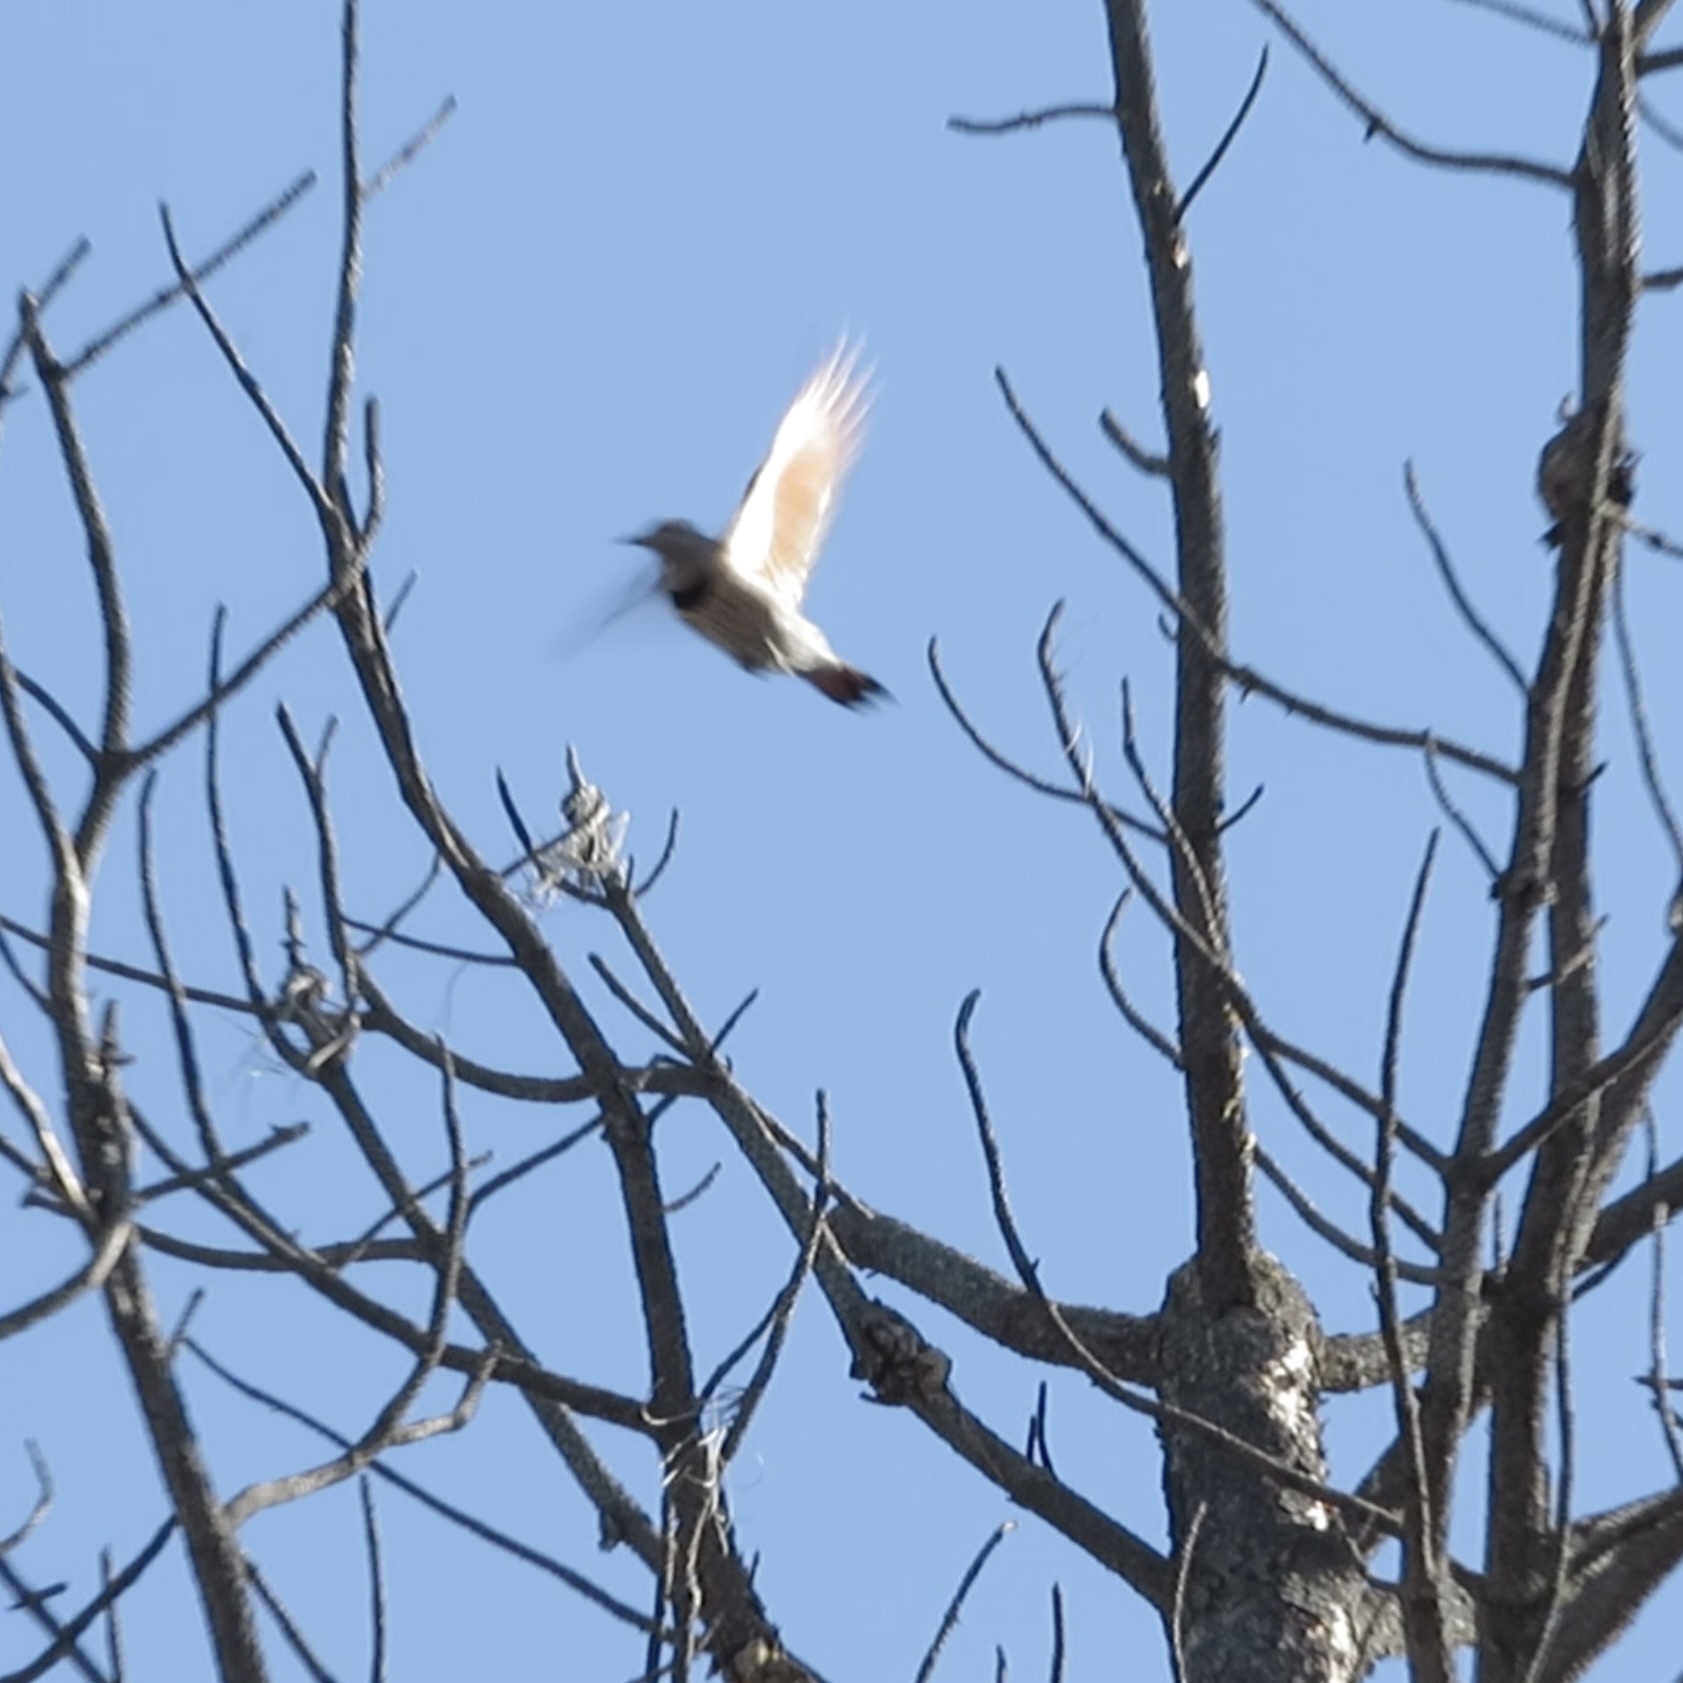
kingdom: Animalia
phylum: Chordata
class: Aves
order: Piciformes
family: Picidae
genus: Colaptes
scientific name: Colaptes auratus
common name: Northern flicker
